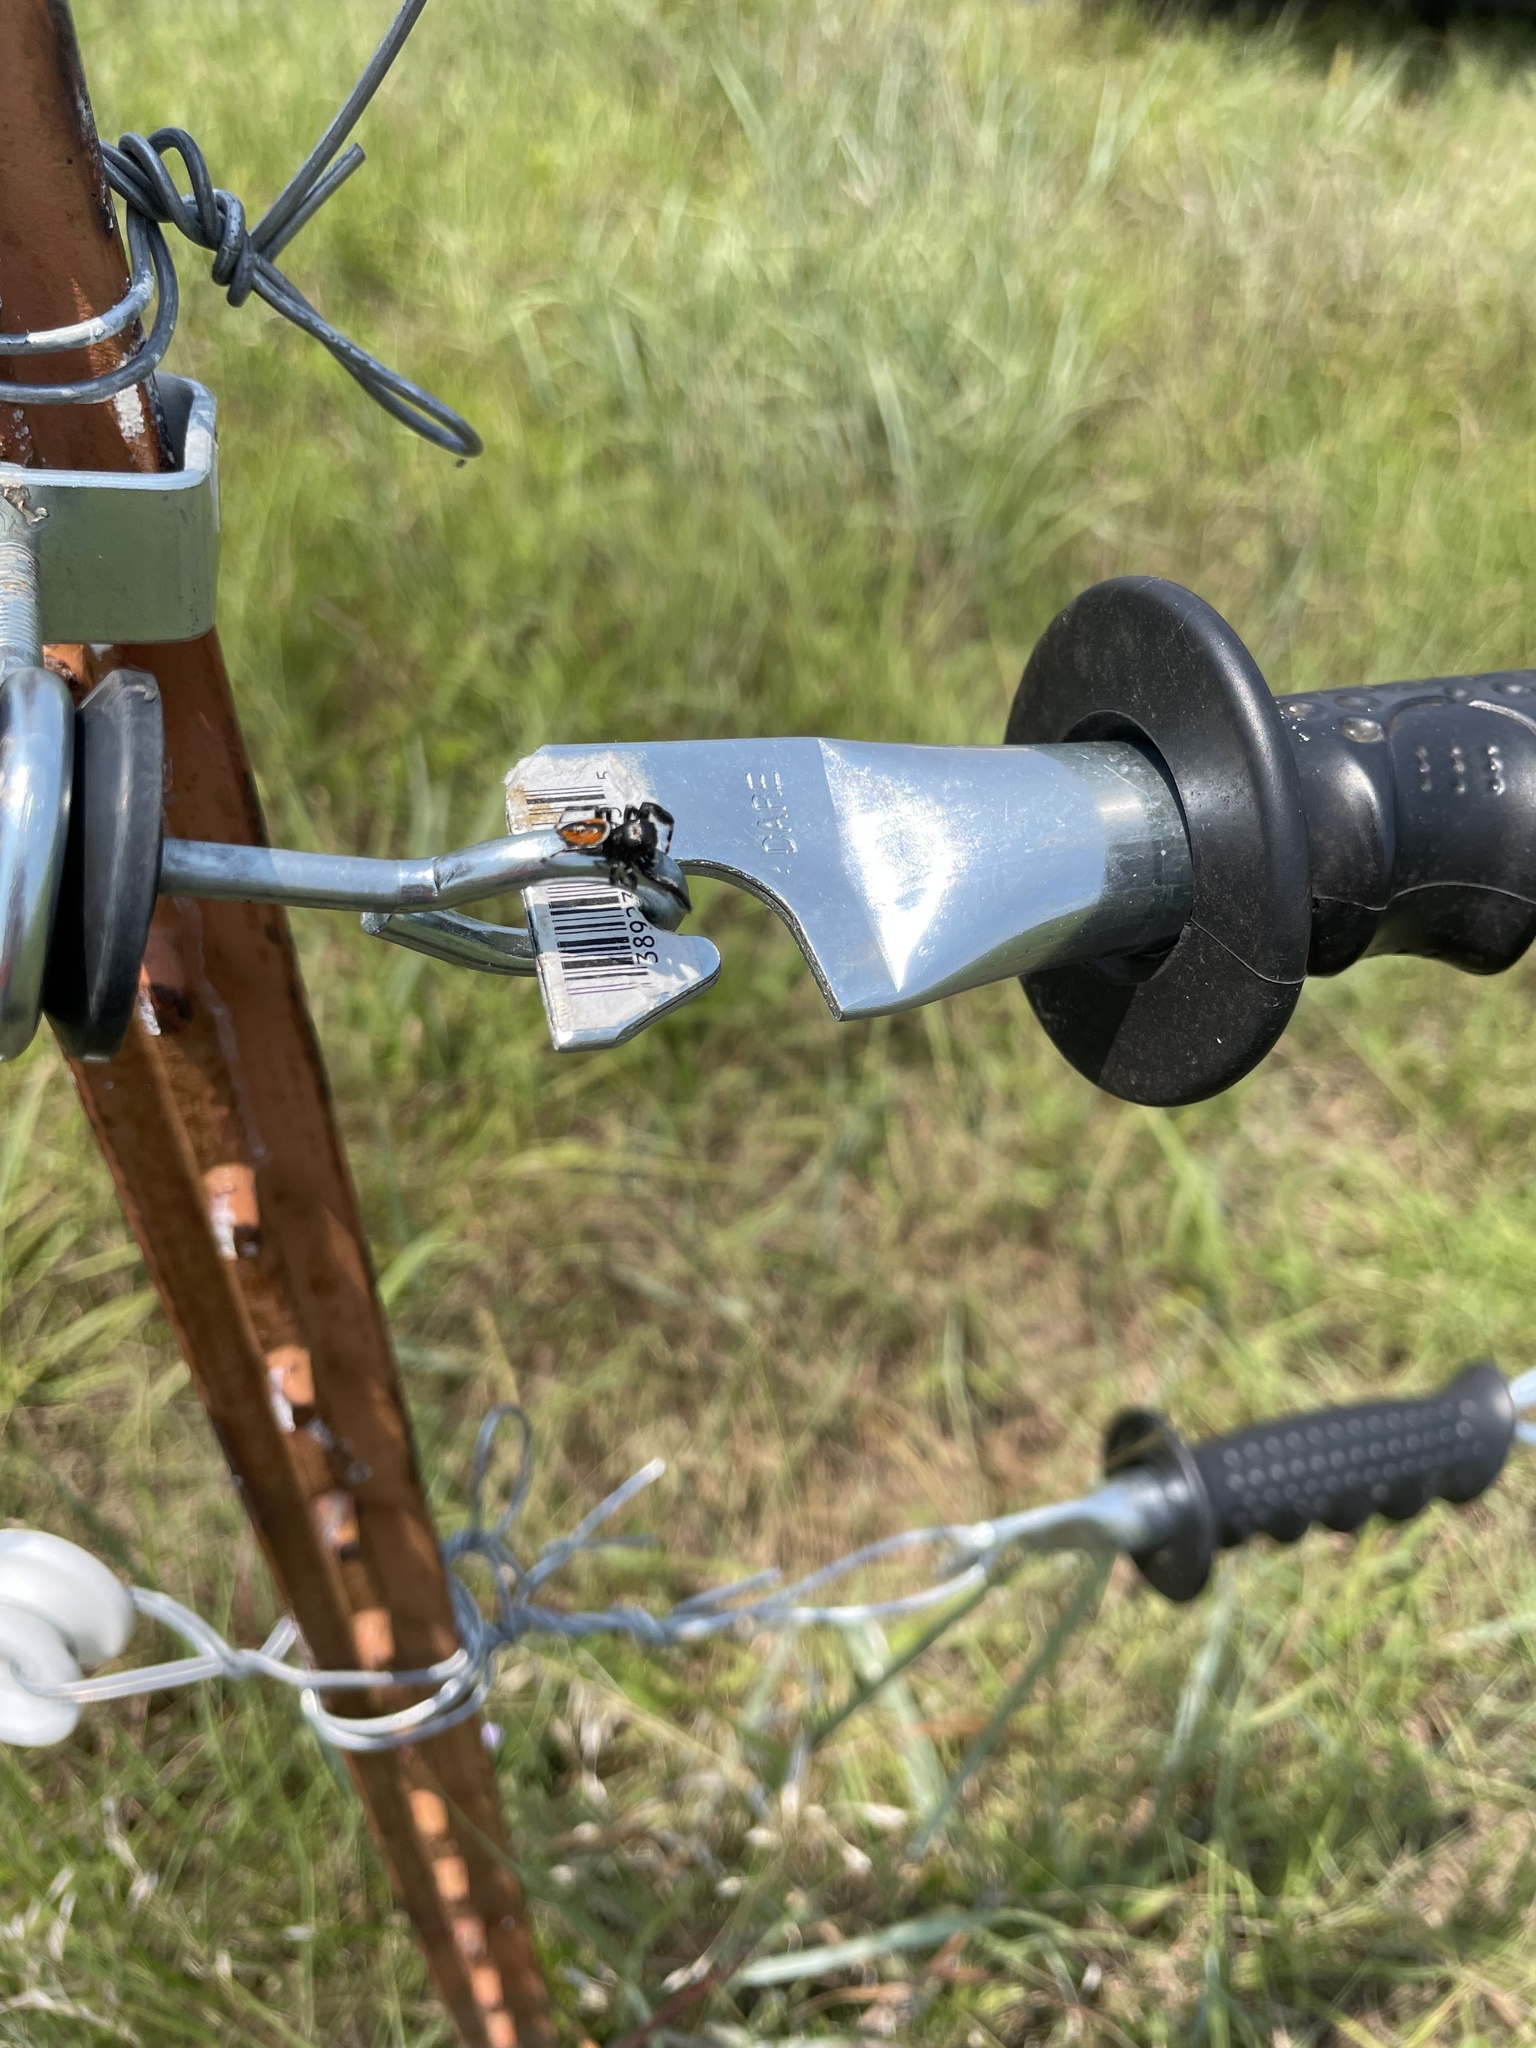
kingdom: Animalia
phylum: Arthropoda
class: Arachnida
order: Araneae
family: Salticidae
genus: Phidippus
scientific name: Phidippus clarus
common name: Brilliant jumping spider
